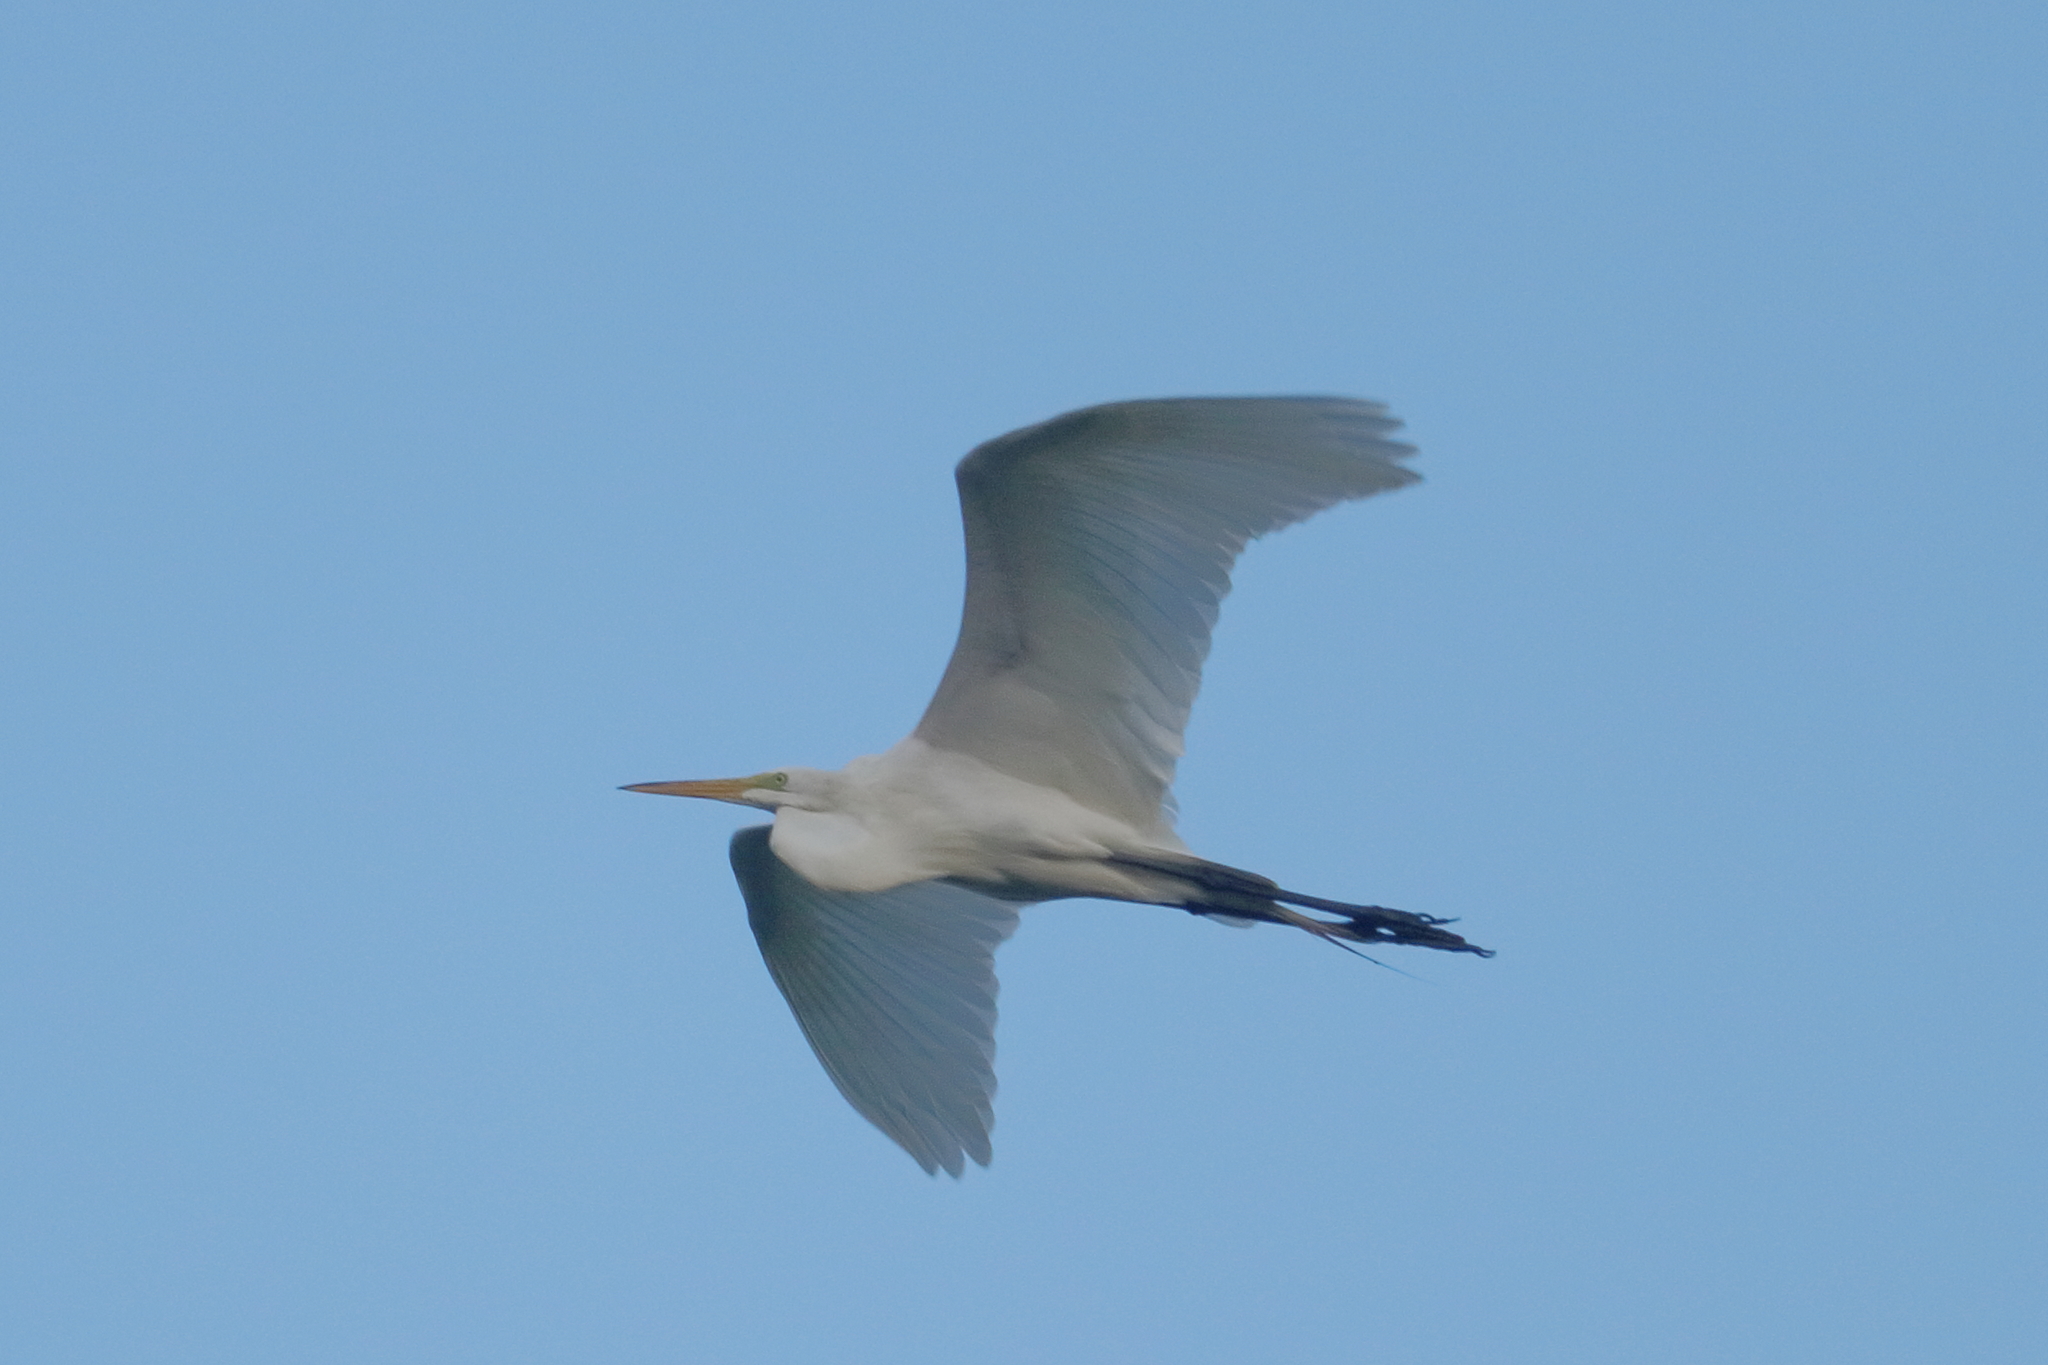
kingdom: Animalia
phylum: Chordata
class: Aves
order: Pelecaniformes
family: Ardeidae
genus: Ardea
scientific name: Ardea alba
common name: Great egret
